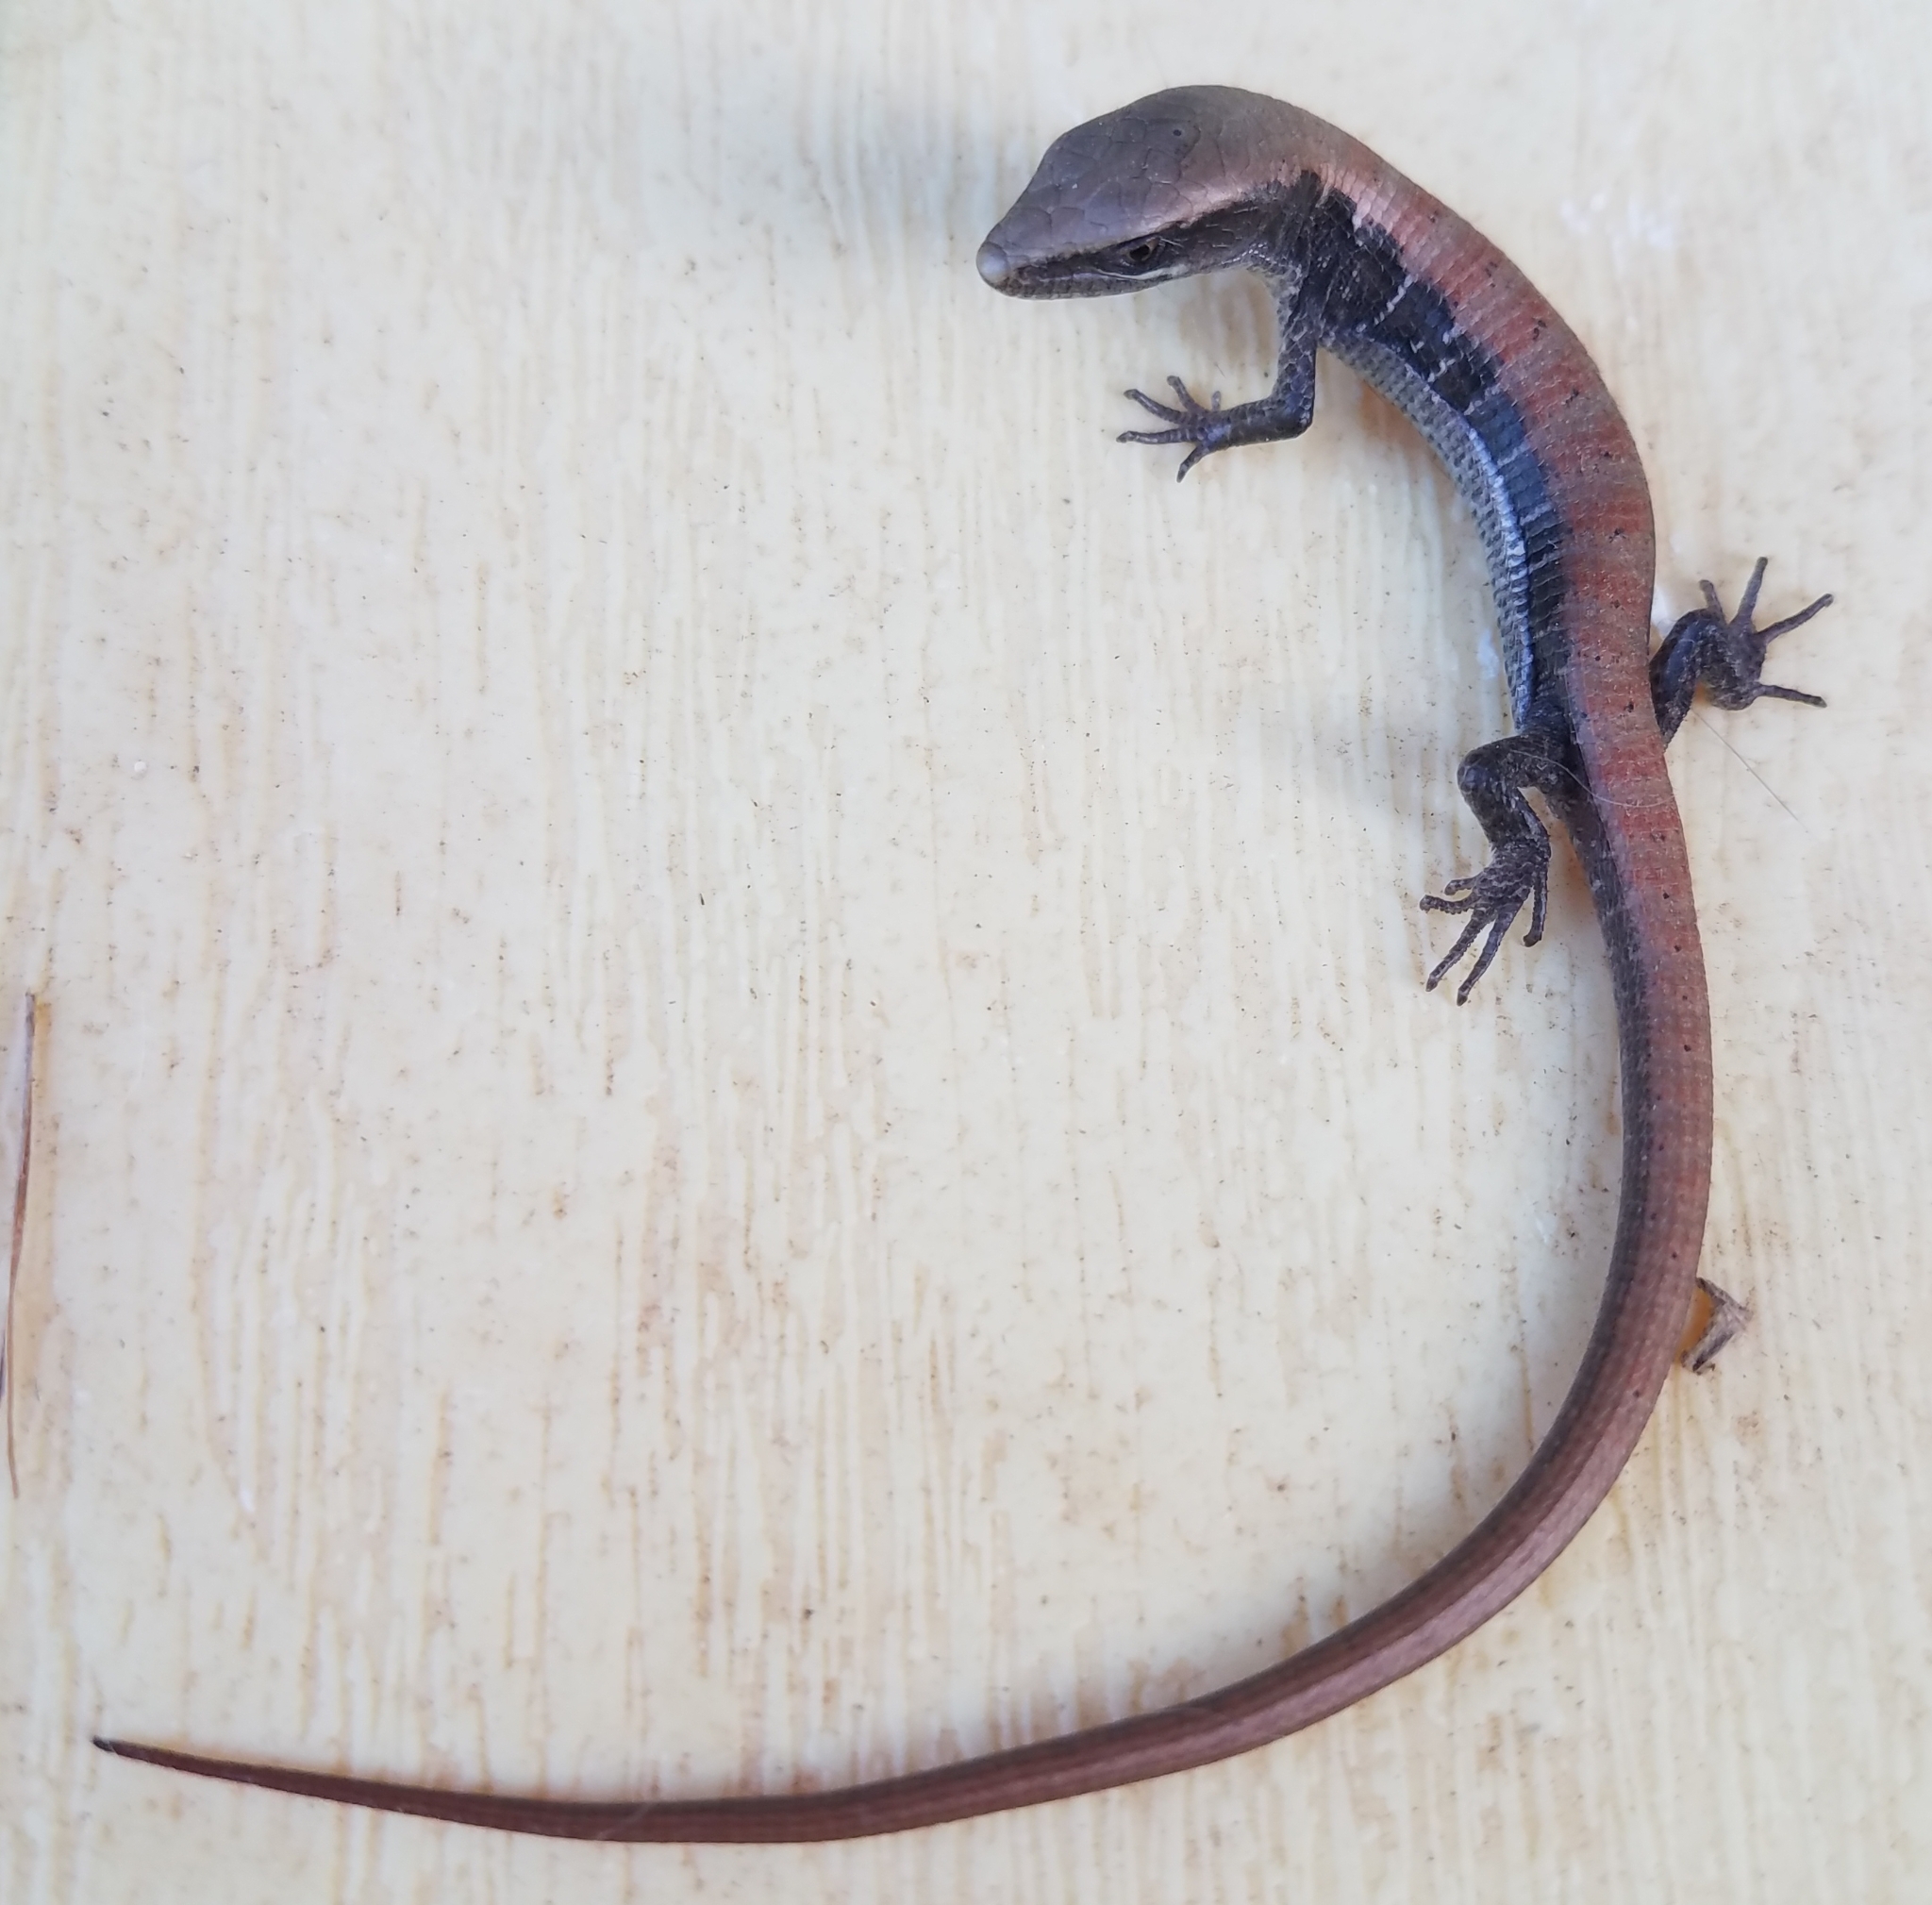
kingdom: Animalia
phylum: Chordata
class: Squamata
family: Anguidae
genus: Elgaria
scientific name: Elgaria multicarinata
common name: Southern alligator lizard
